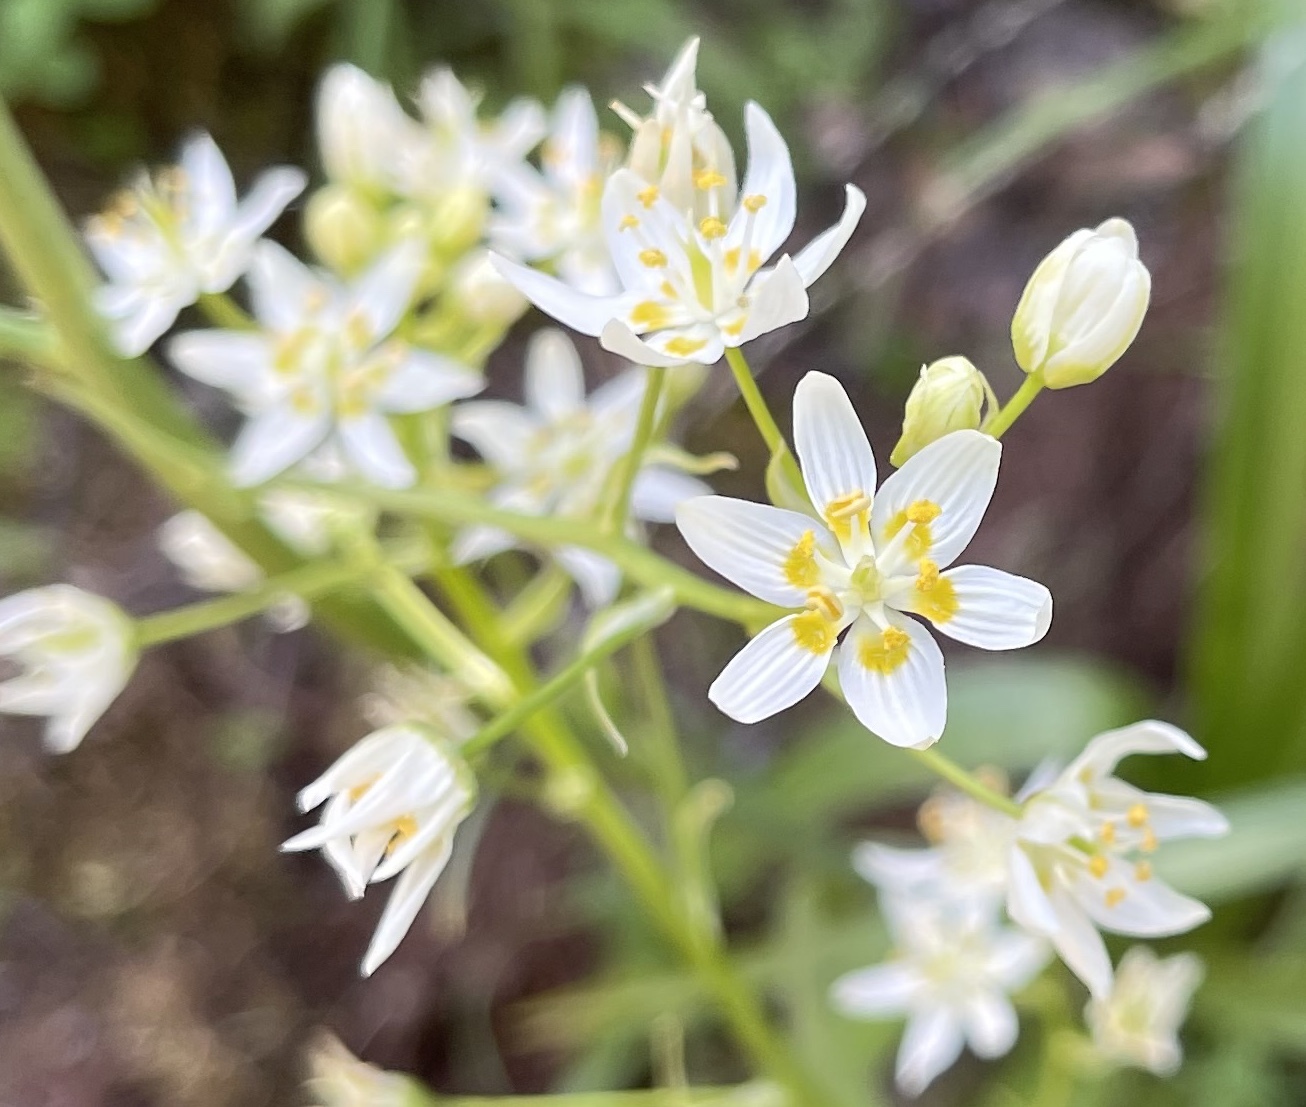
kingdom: Plantae
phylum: Tracheophyta
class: Liliopsida
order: Liliales
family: Melanthiaceae
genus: Toxicoscordion
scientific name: Toxicoscordion fremontii
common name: Fremont's death camas
